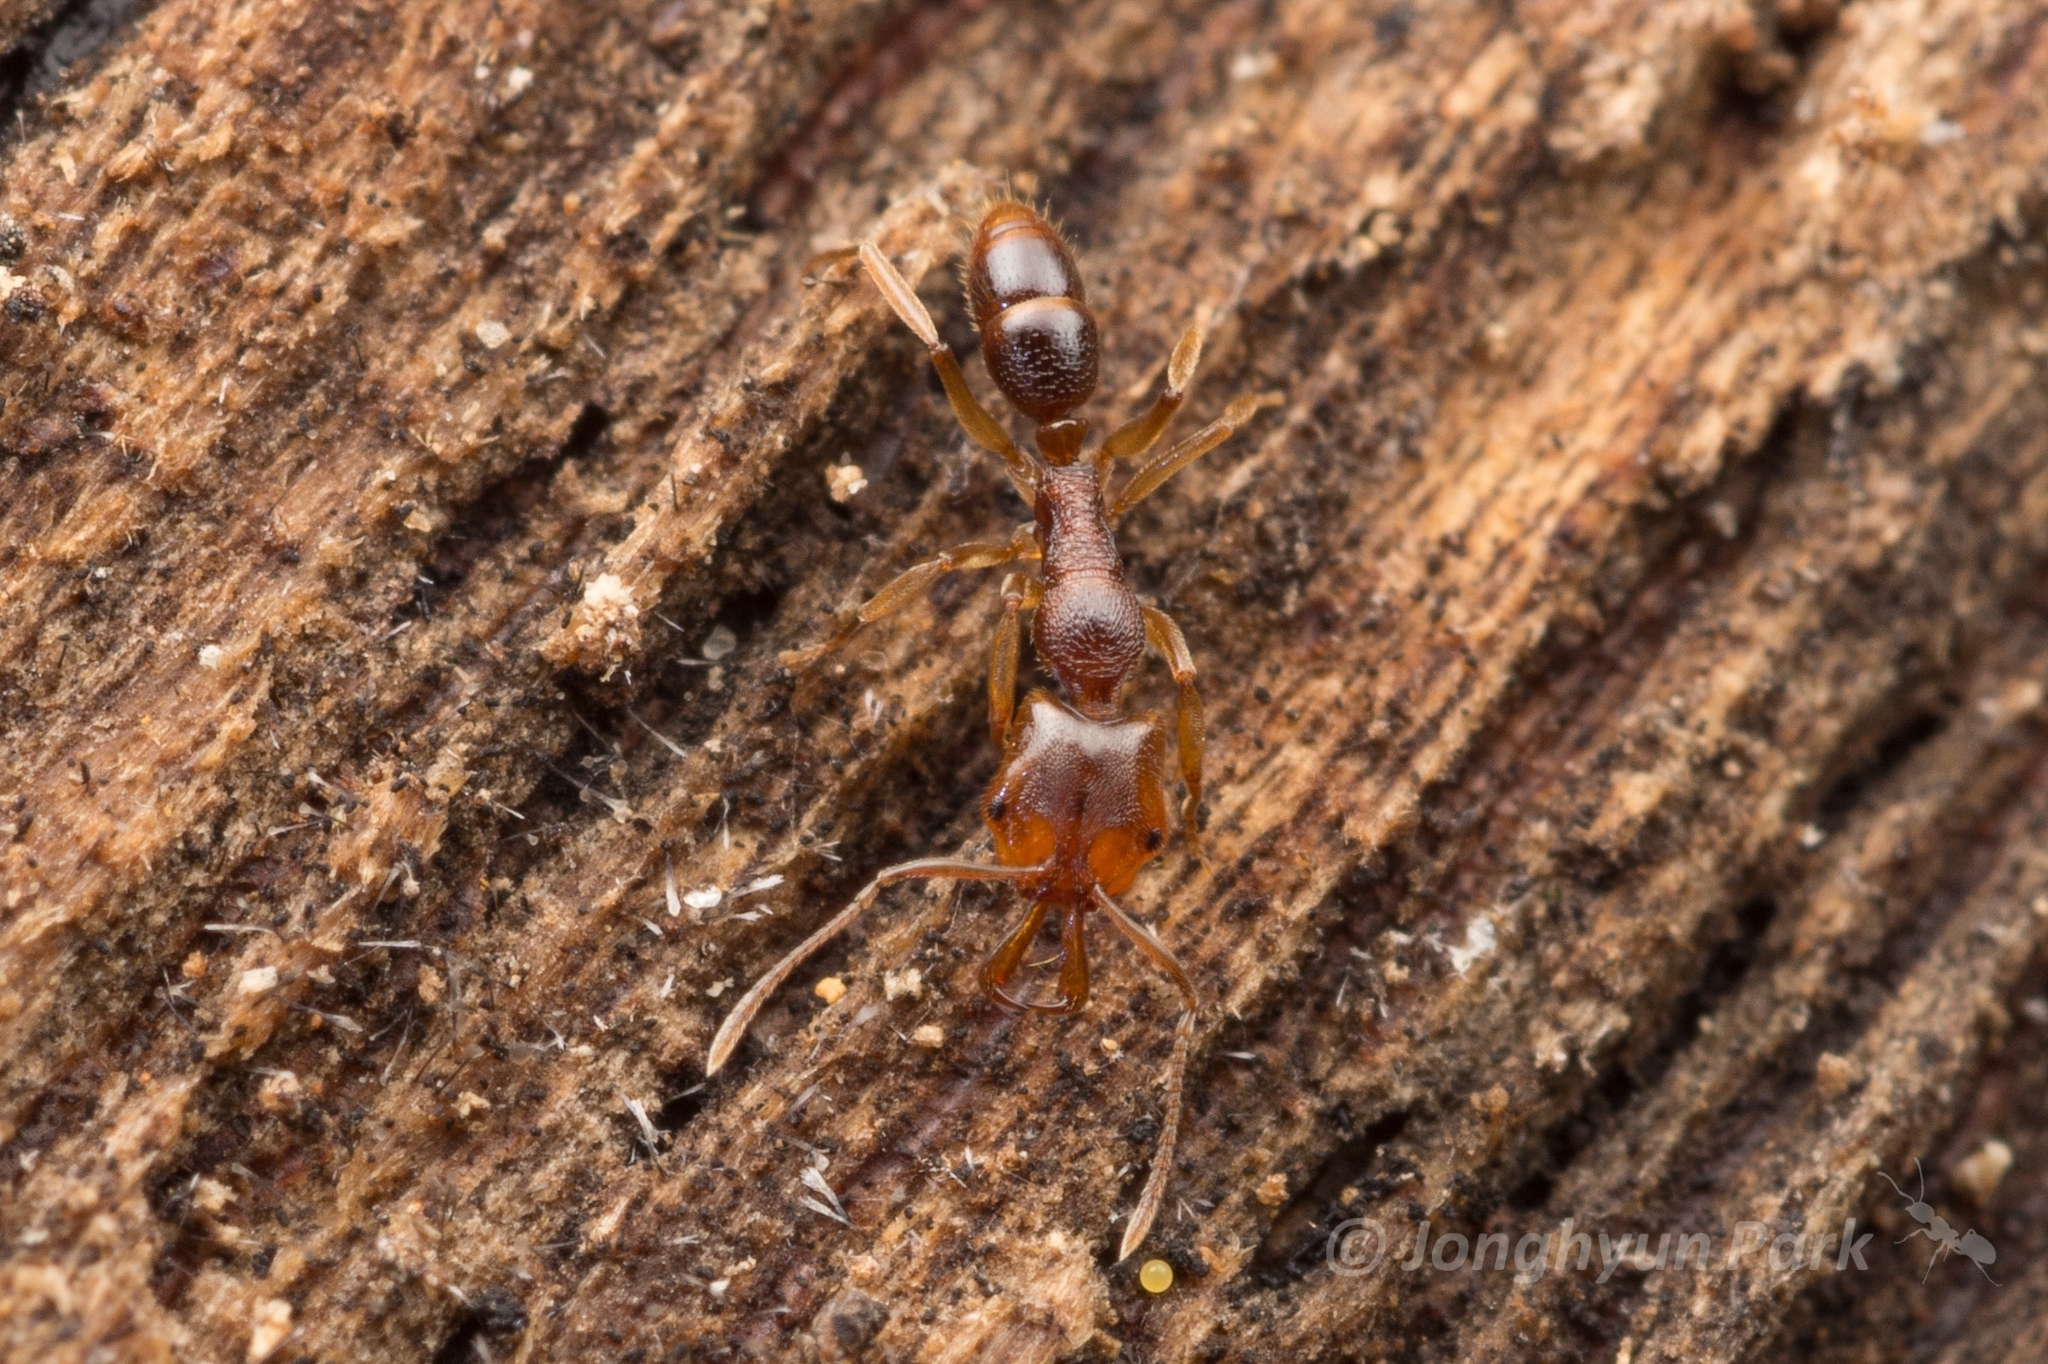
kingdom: Animalia
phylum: Arthropoda
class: Insecta
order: Hymenoptera
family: Formicidae
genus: Anochetus
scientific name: Anochetus graeffei
